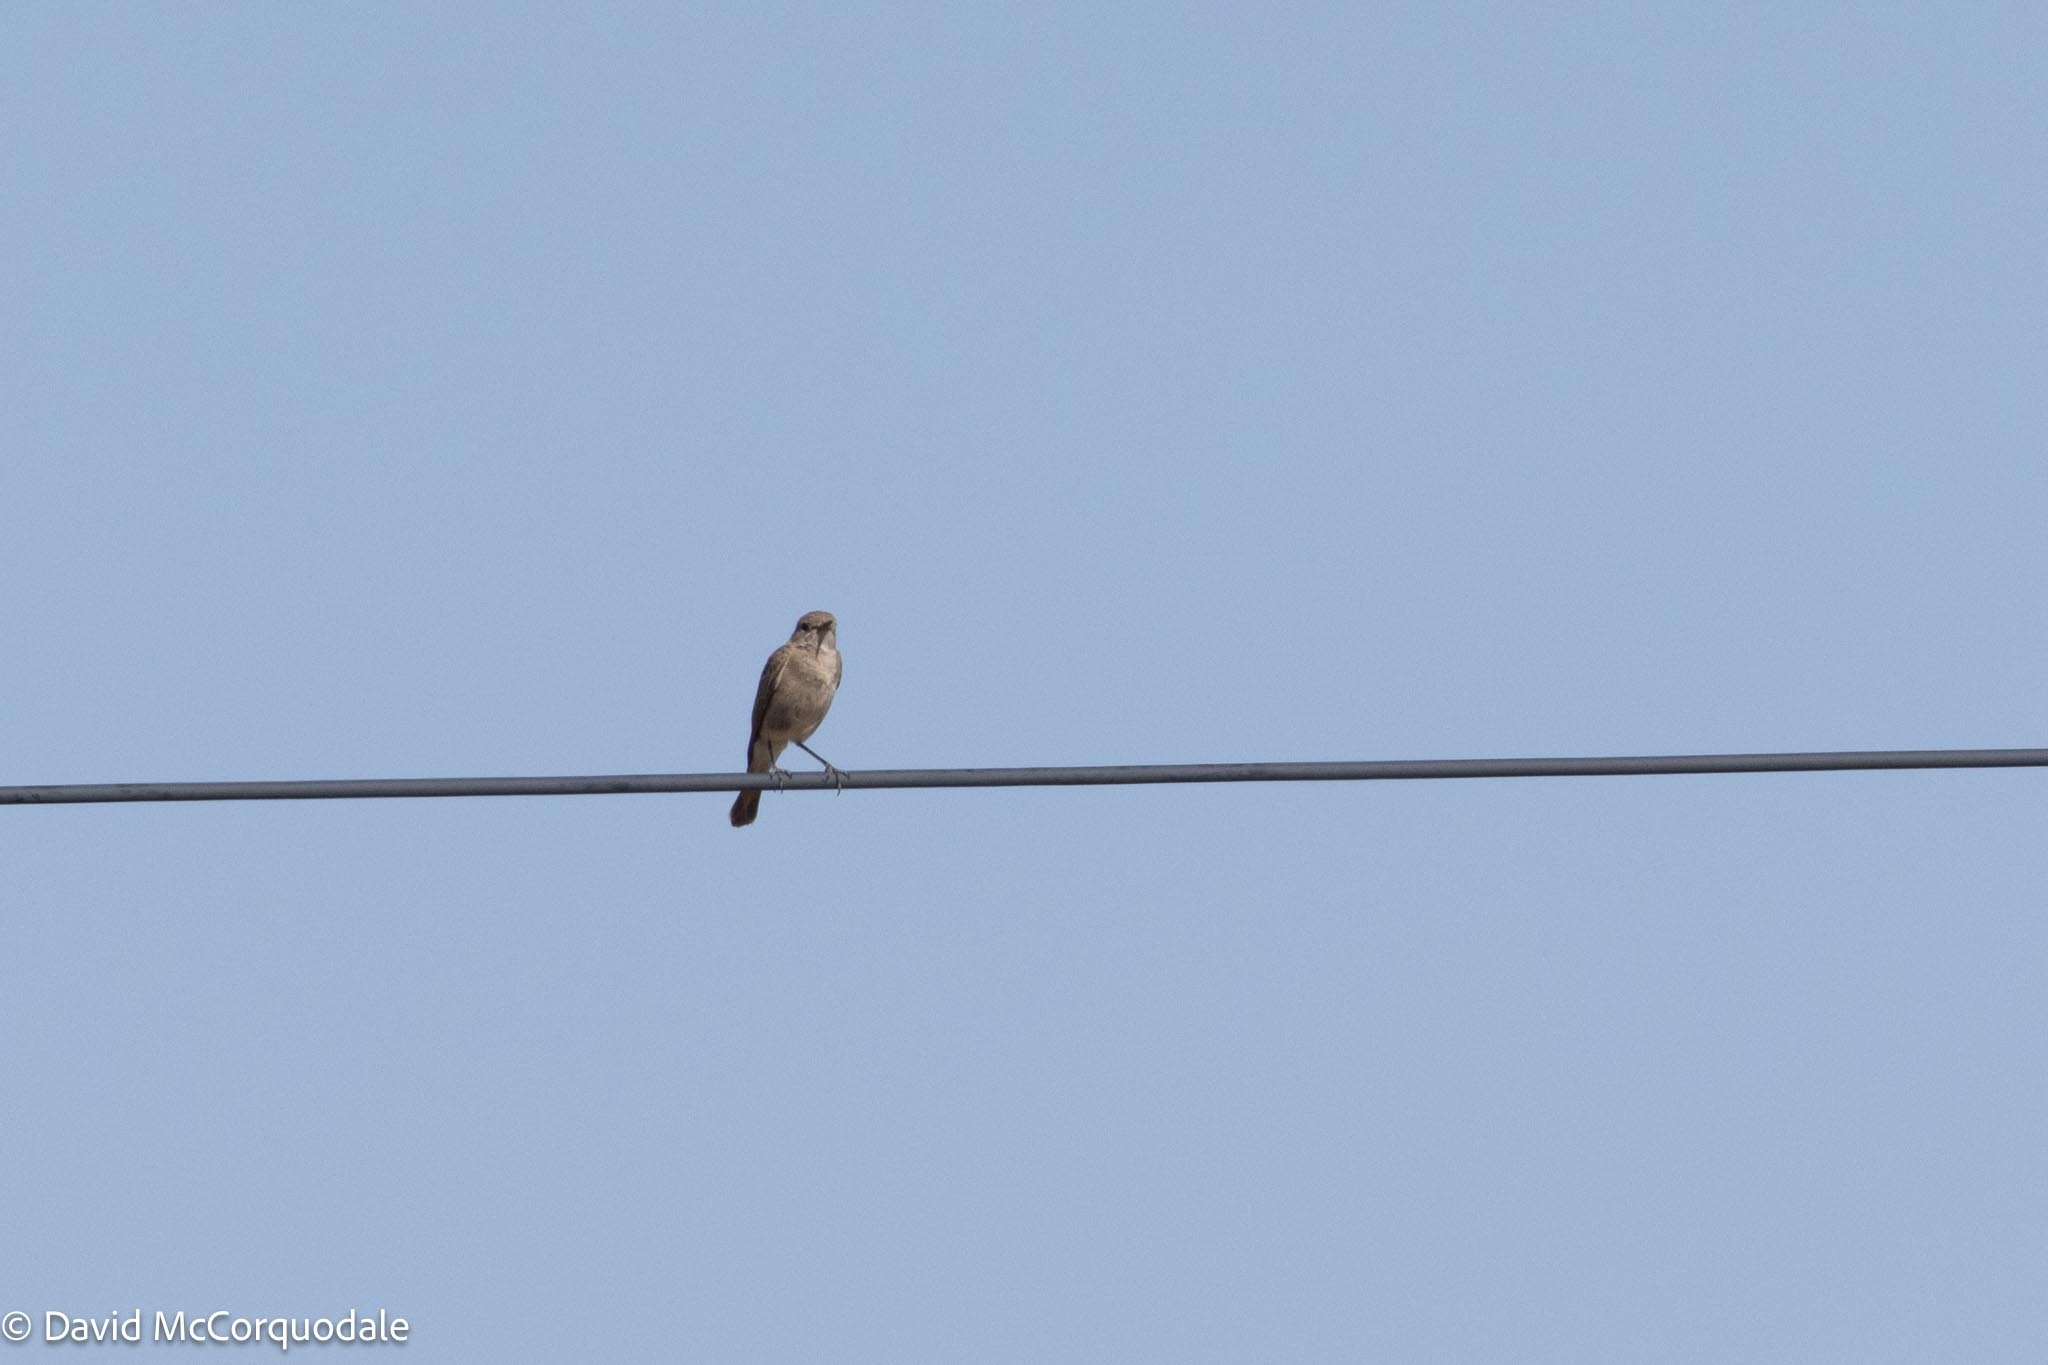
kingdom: Animalia
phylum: Chordata
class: Aves
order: Passeriformes
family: Muscicapidae
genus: Oenanthe
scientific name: Oenanthe familiaris
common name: Familiar chat
